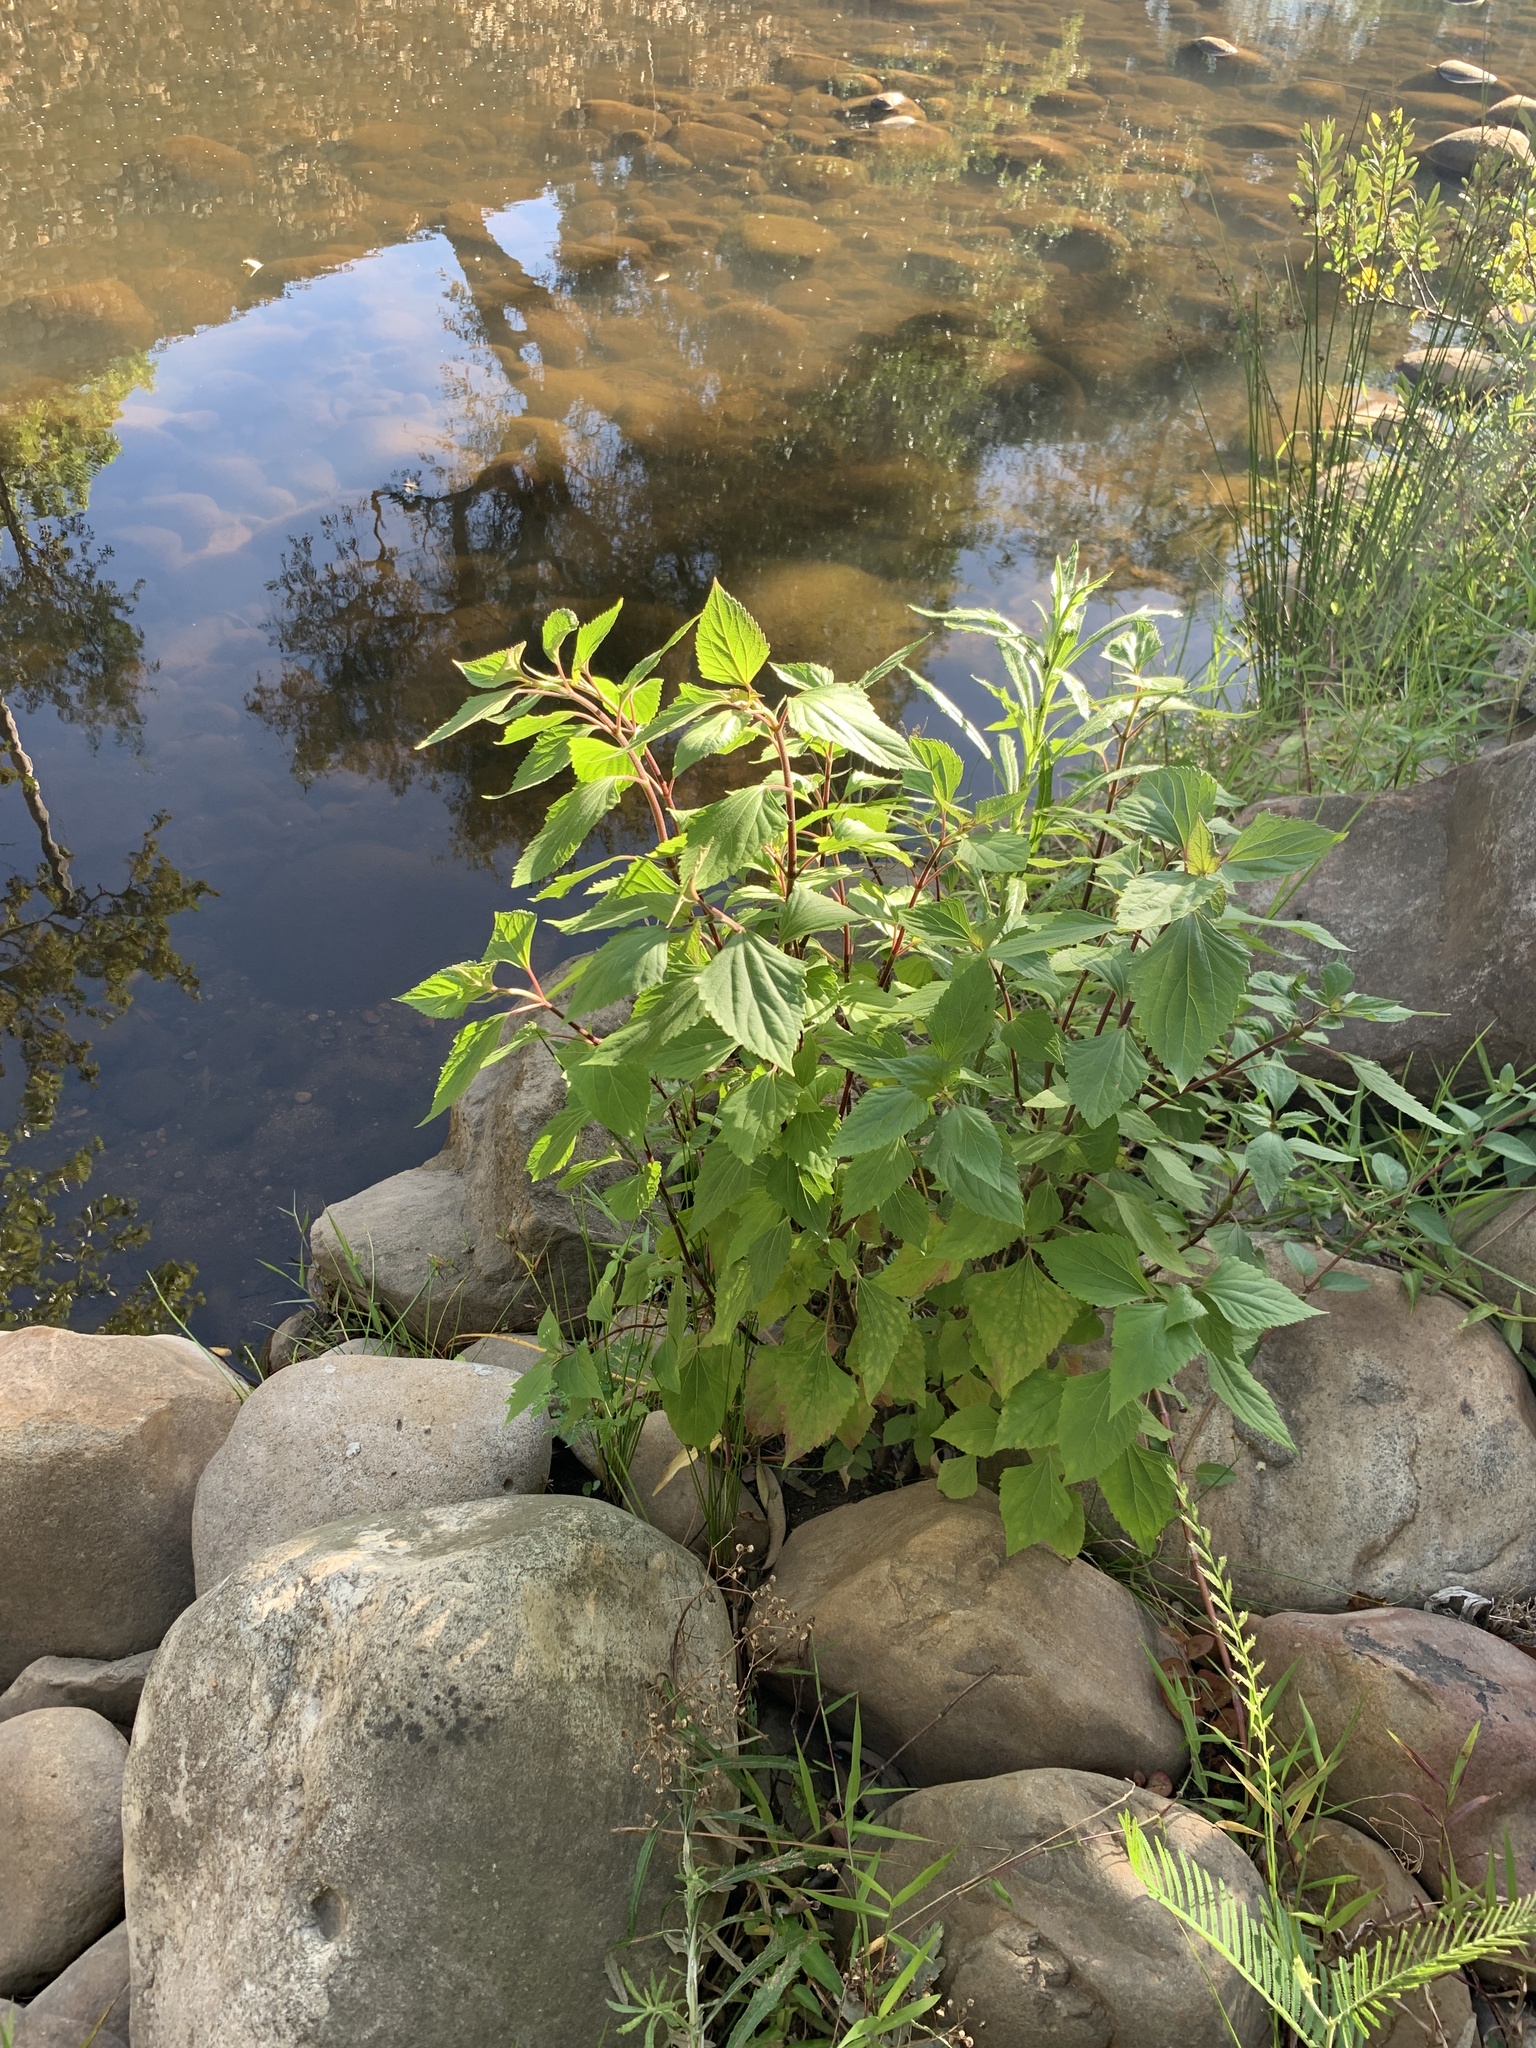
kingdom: Plantae
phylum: Tracheophyta
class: Magnoliopsida
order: Asterales
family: Asteraceae
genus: Ageratina
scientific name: Ageratina adenophora
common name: Sticky snakeroot
